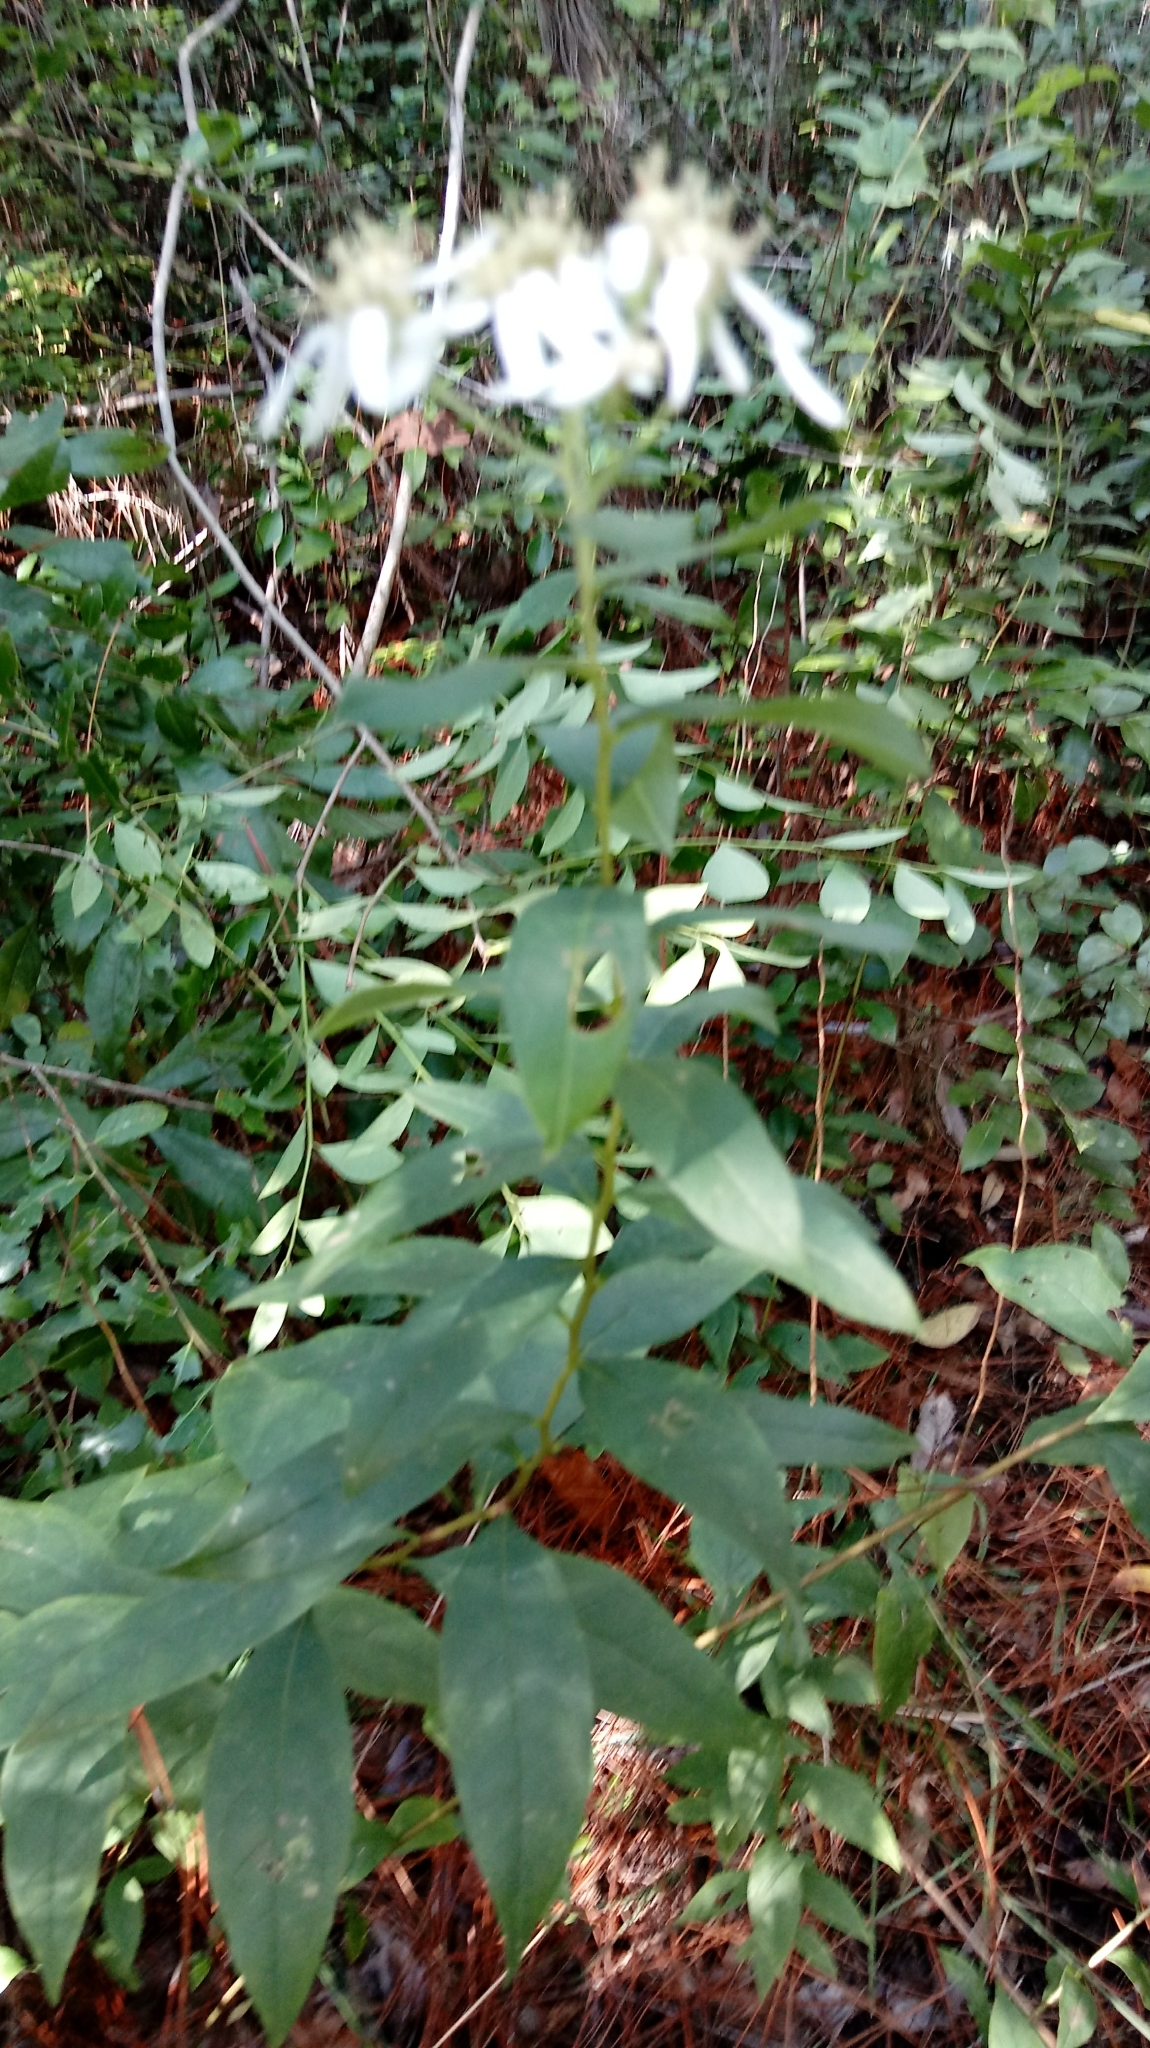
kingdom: Plantae
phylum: Tracheophyta
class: Magnoliopsida
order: Asterales
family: Asteraceae
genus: Doellingeria
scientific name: Doellingeria sericocarpoides
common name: Southern tall flat-top aster
